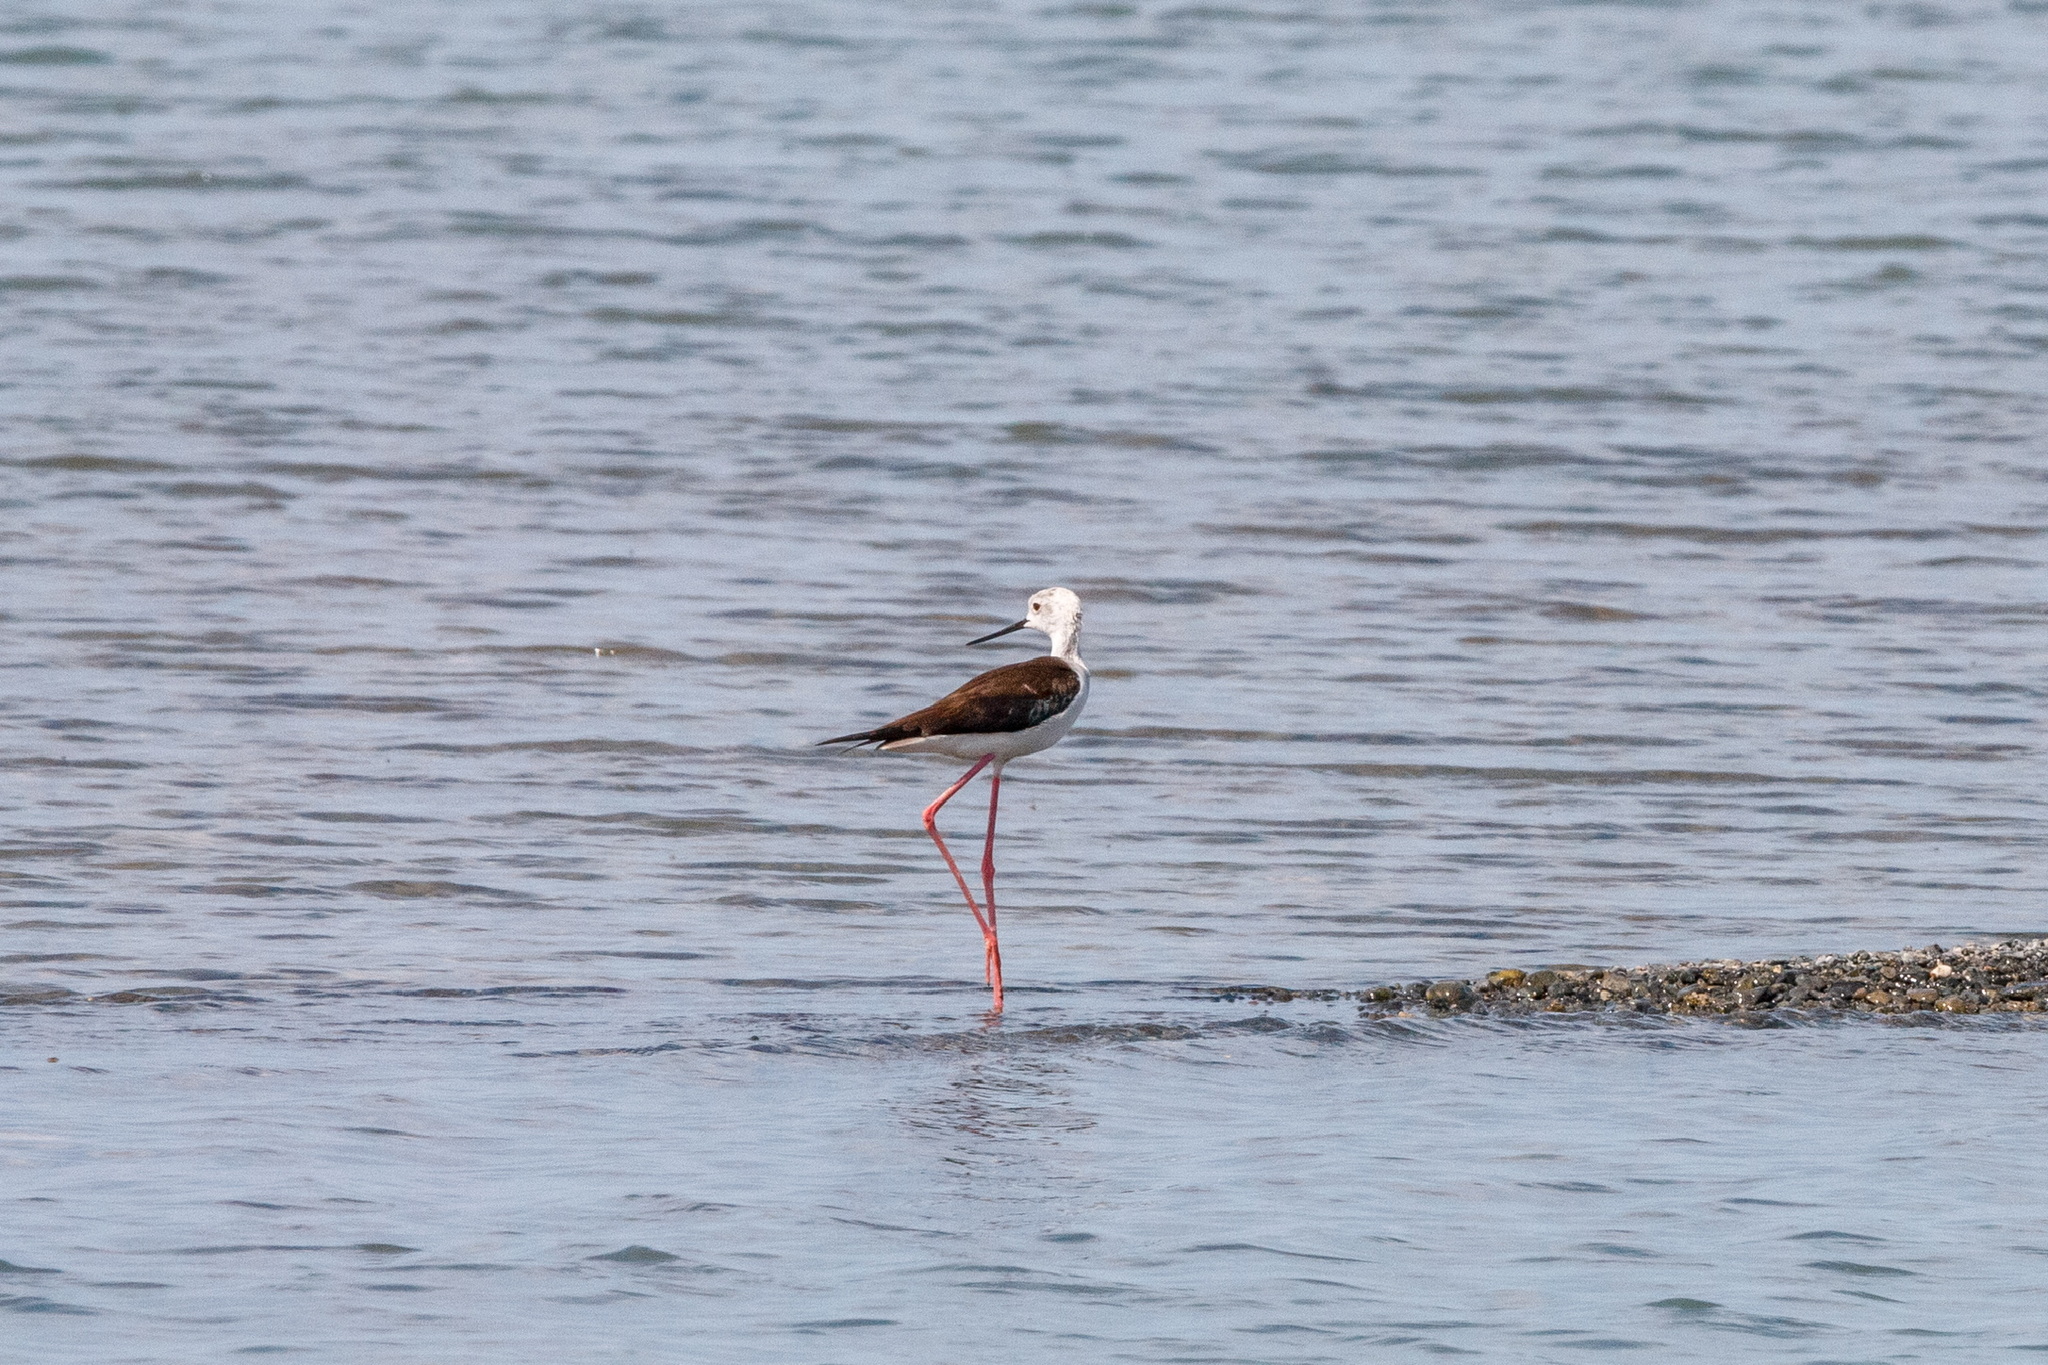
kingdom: Animalia
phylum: Chordata
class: Aves
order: Charadriiformes
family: Recurvirostridae
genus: Himantopus
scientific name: Himantopus himantopus
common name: Black-winged stilt
